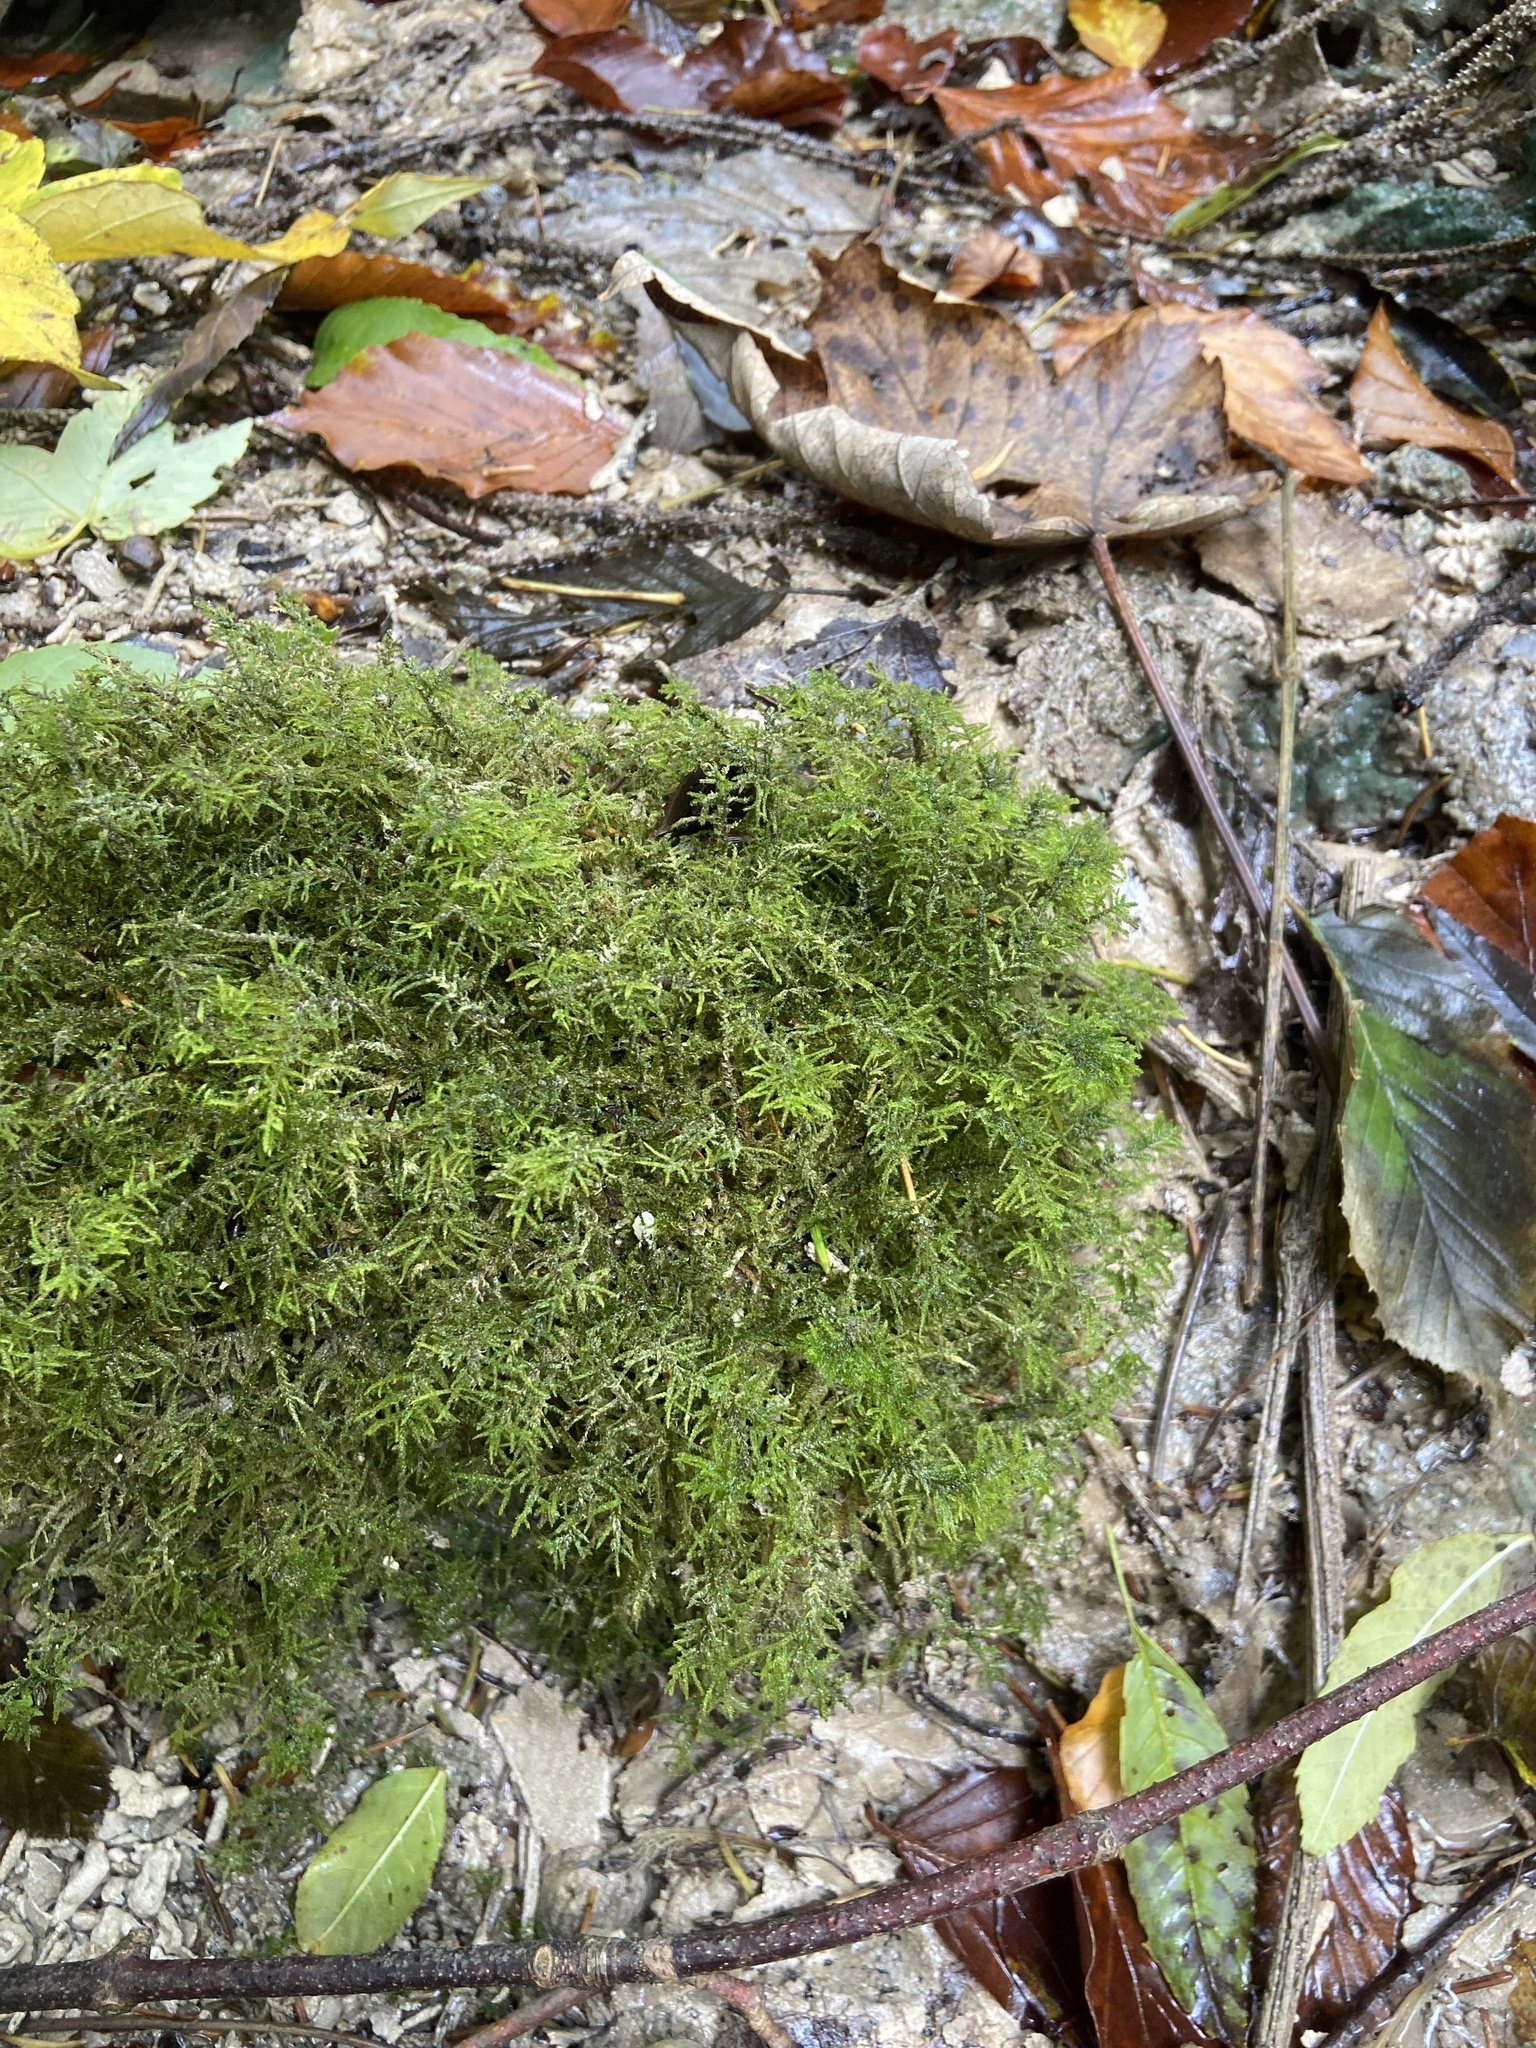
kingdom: Plantae
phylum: Bryophyta
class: Bryopsida
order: Hypnales
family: Amblystegiaceae
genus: Palustriella
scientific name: Palustriella commutata
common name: Curled hook-moss
